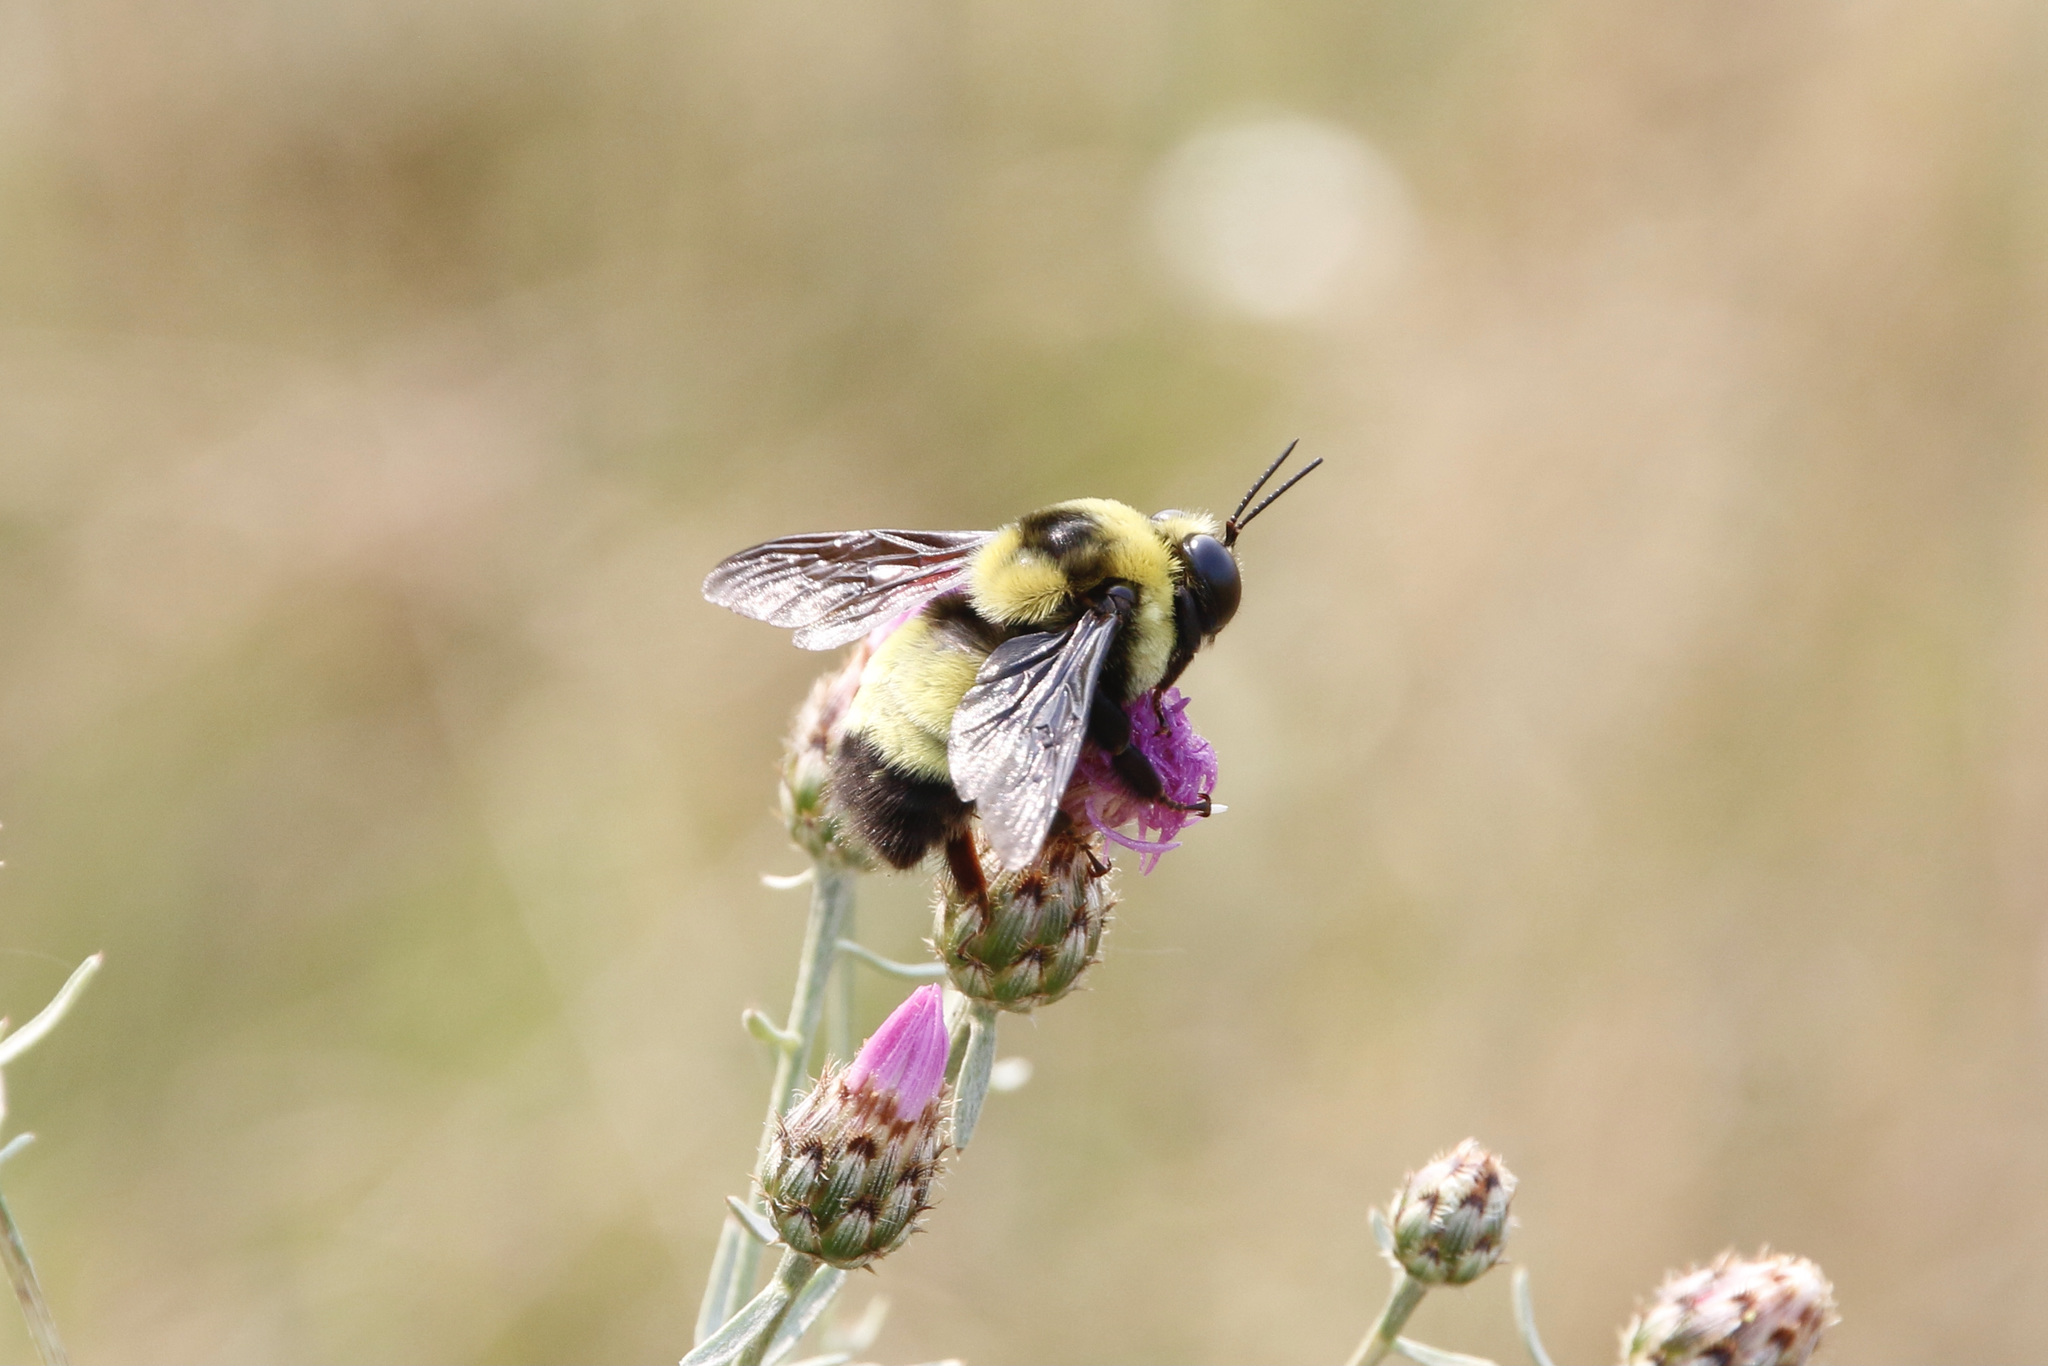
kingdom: Animalia
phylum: Arthropoda
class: Insecta
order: Hymenoptera
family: Apidae
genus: Bombus
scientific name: Bombus auricomus
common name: Black and gold bumble bee
